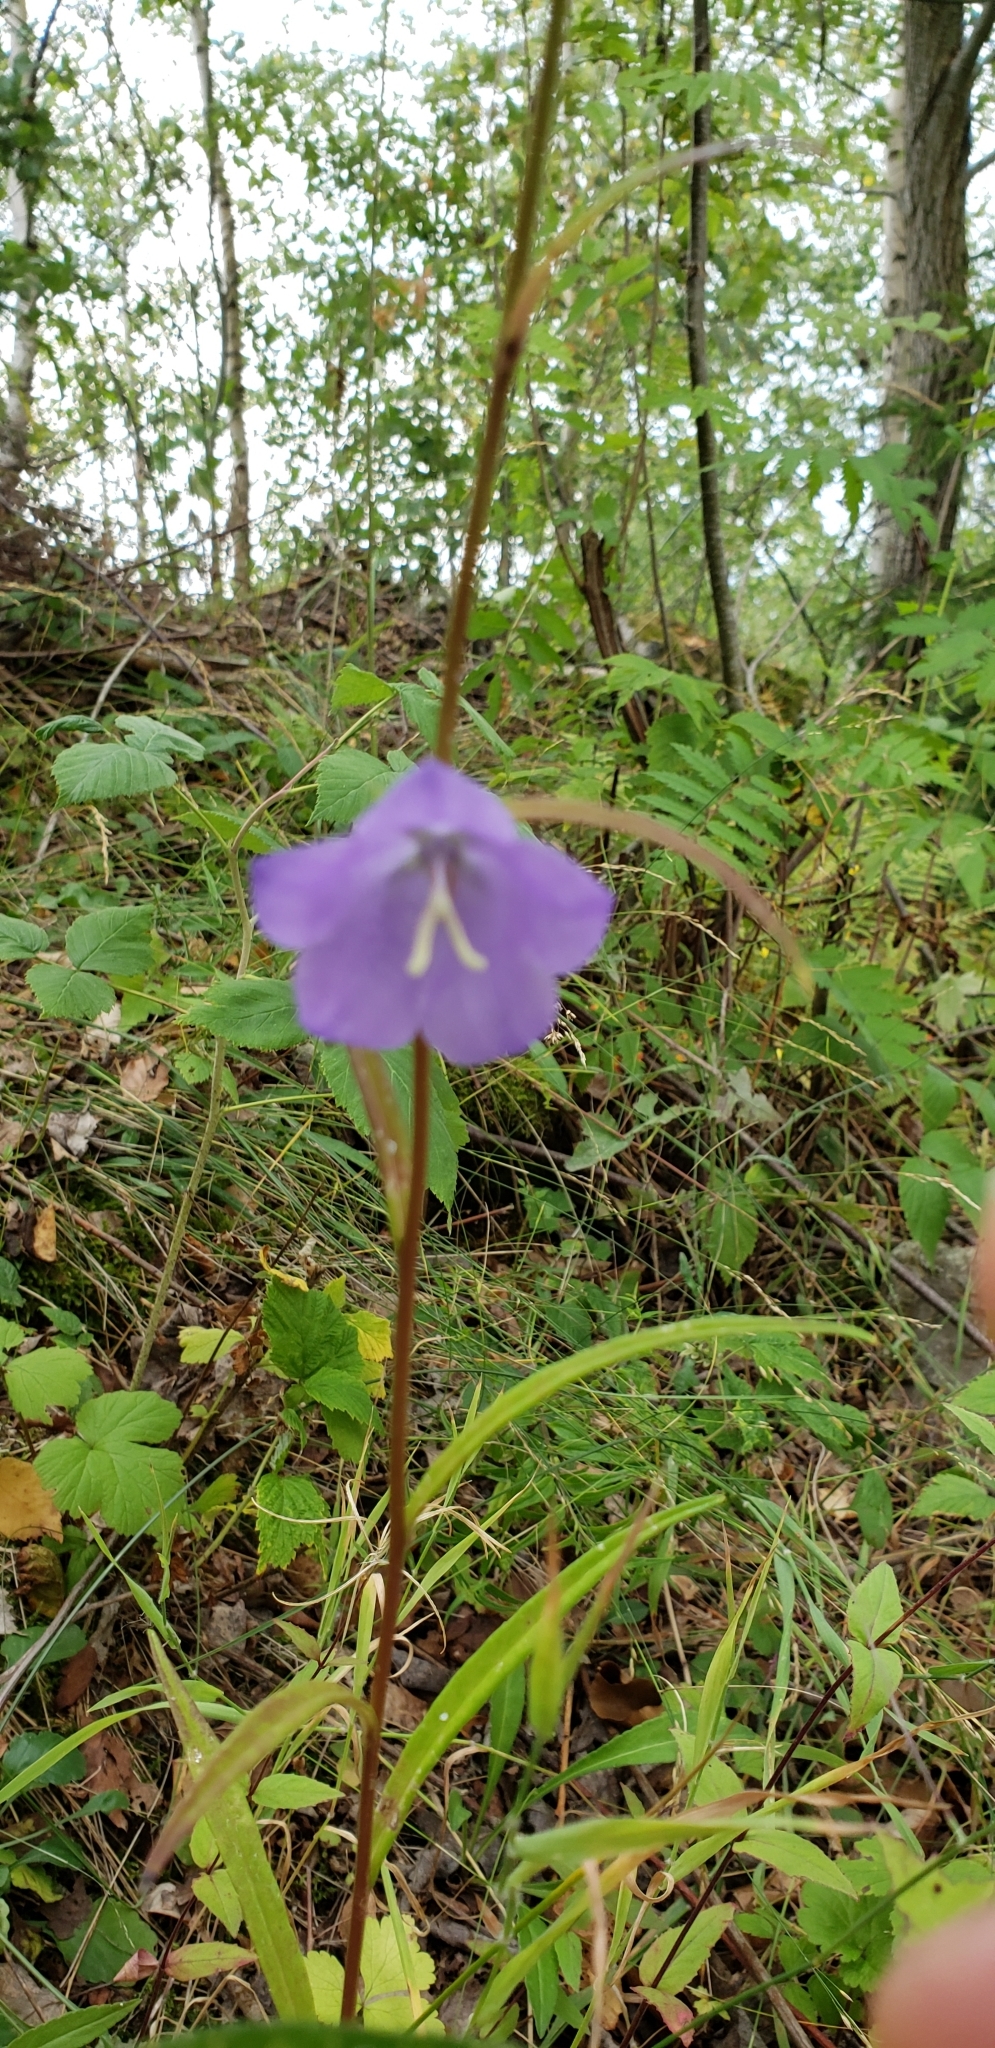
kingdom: Plantae
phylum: Tracheophyta
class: Magnoliopsida
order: Asterales
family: Campanulaceae
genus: Campanula
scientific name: Campanula persicifolia
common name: Peach-leaved bellflower
